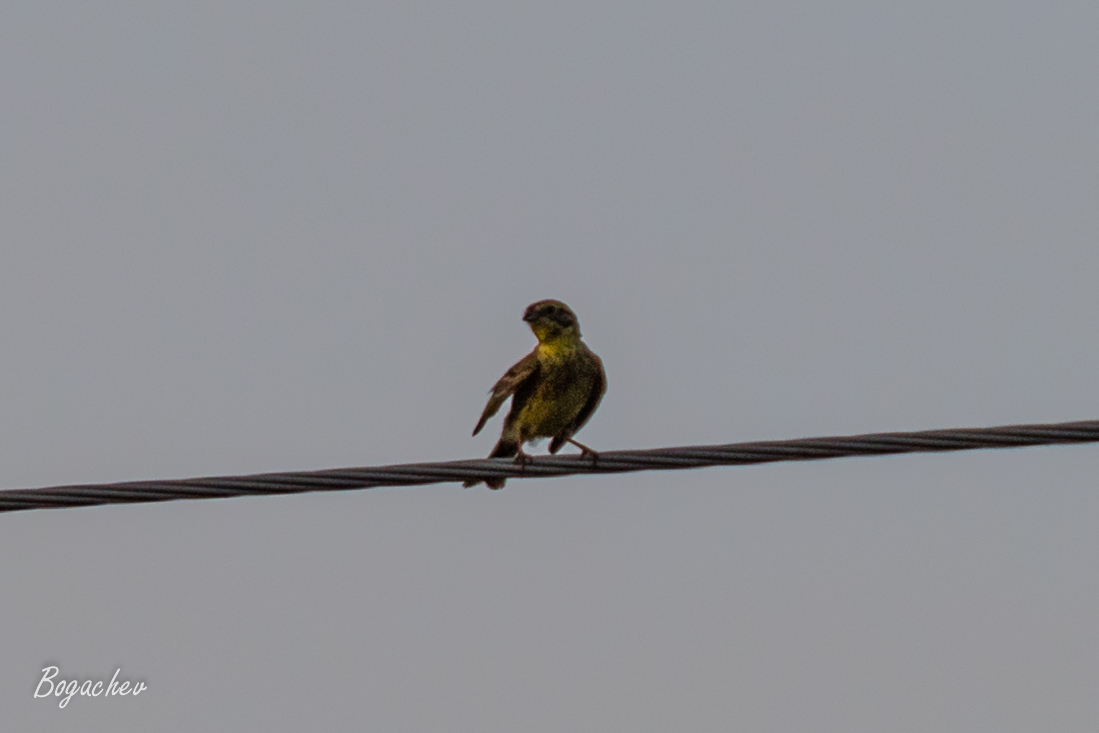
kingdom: Animalia
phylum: Chordata
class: Aves
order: Passeriformes
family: Emberizidae
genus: Emberiza
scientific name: Emberiza citrinella
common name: Yellowhammer
